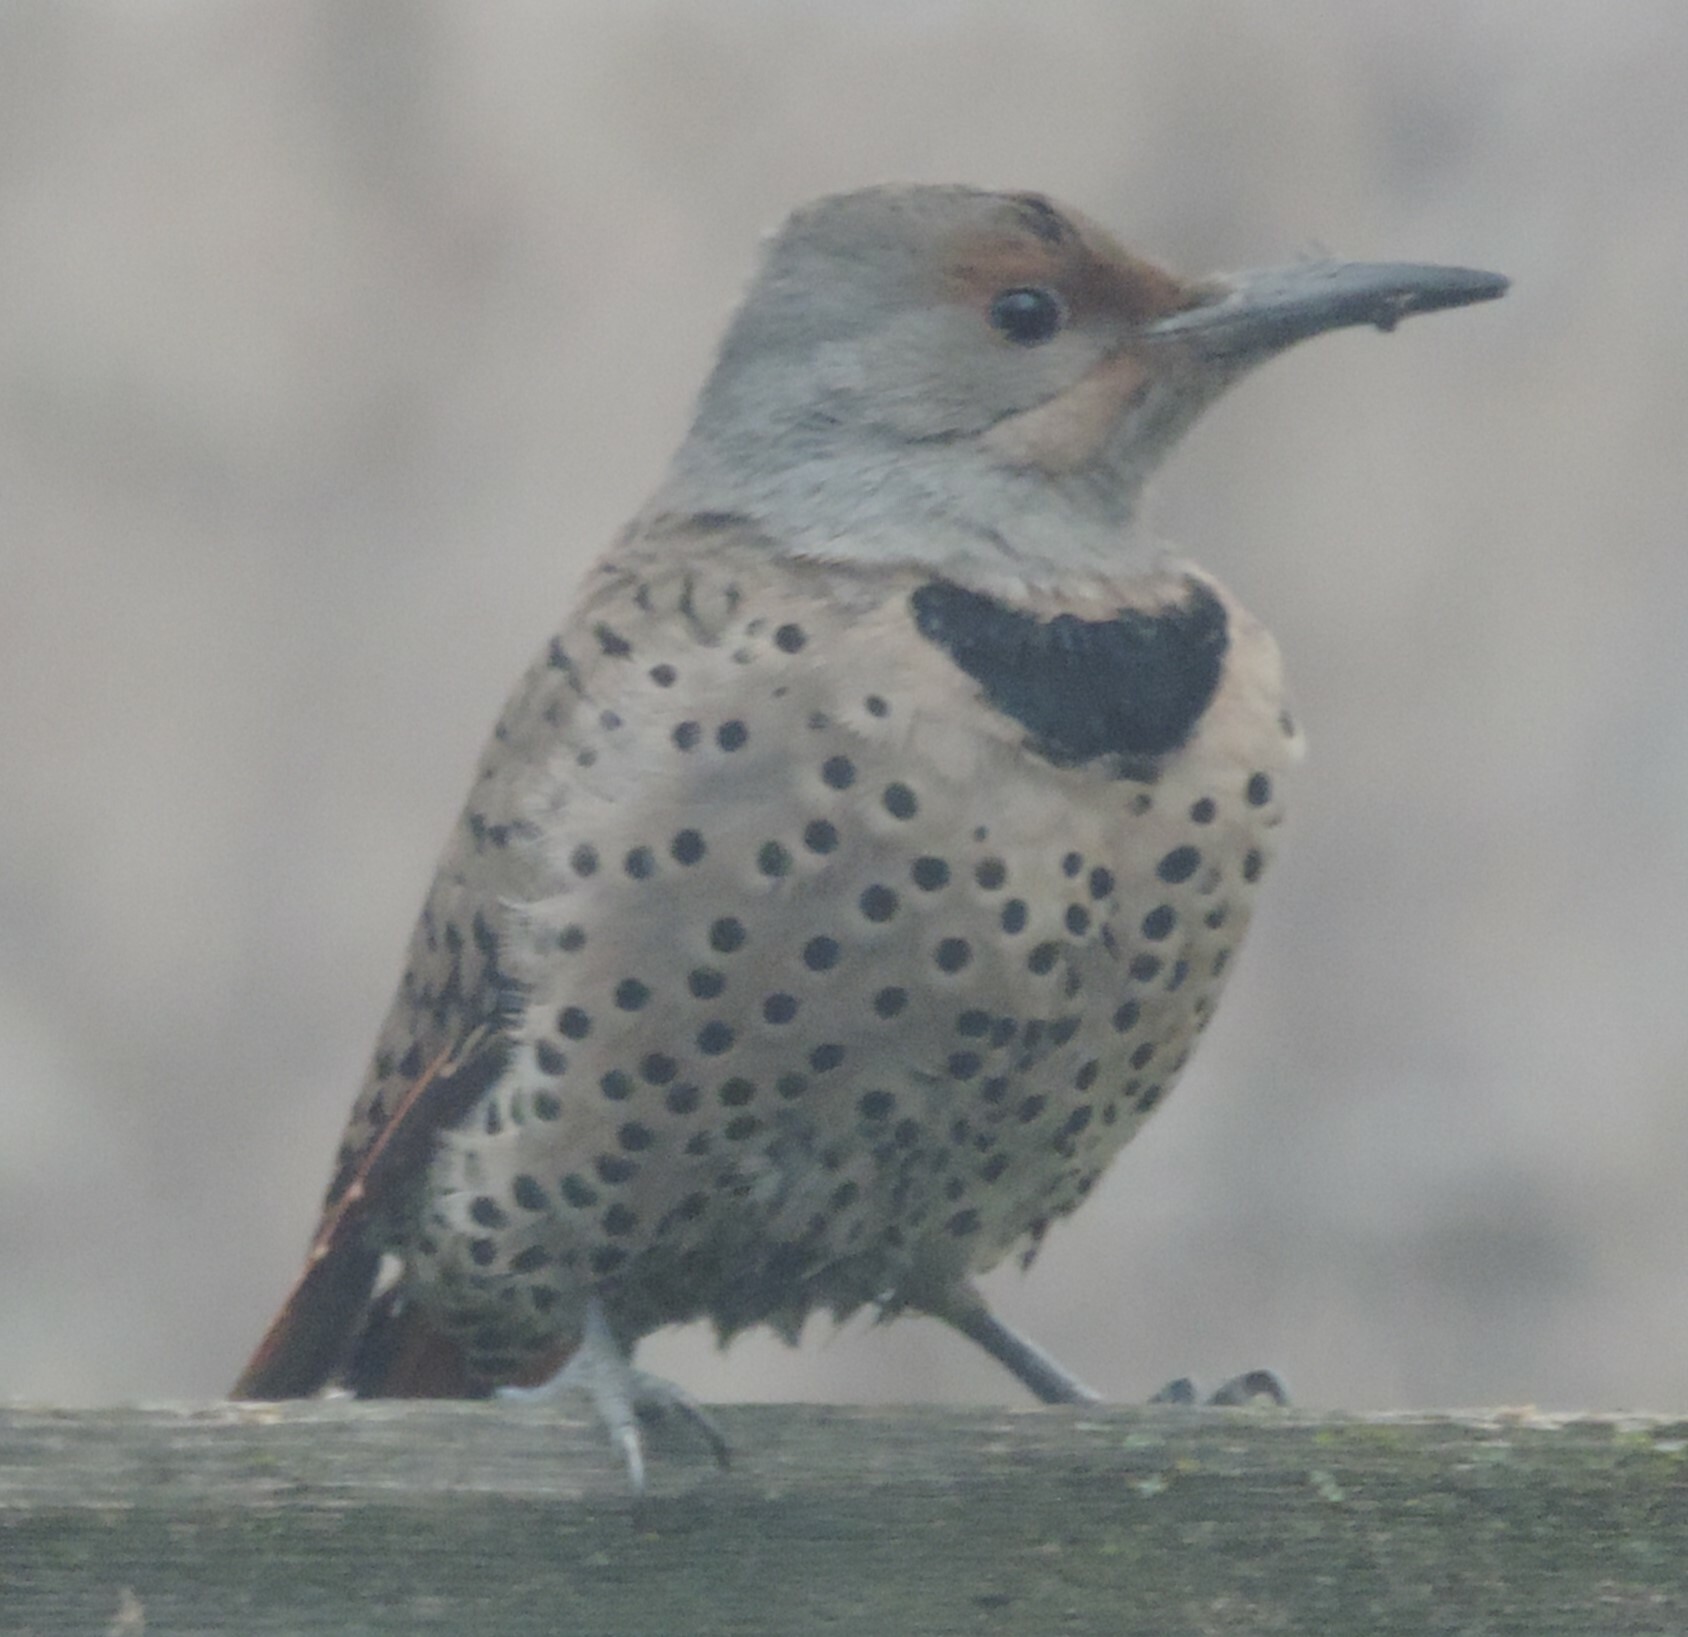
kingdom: Animalia
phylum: Chordata
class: Aves
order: Piciformes
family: Picidae
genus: Colaptes
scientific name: Colaptes auratus
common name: Northern flicker
